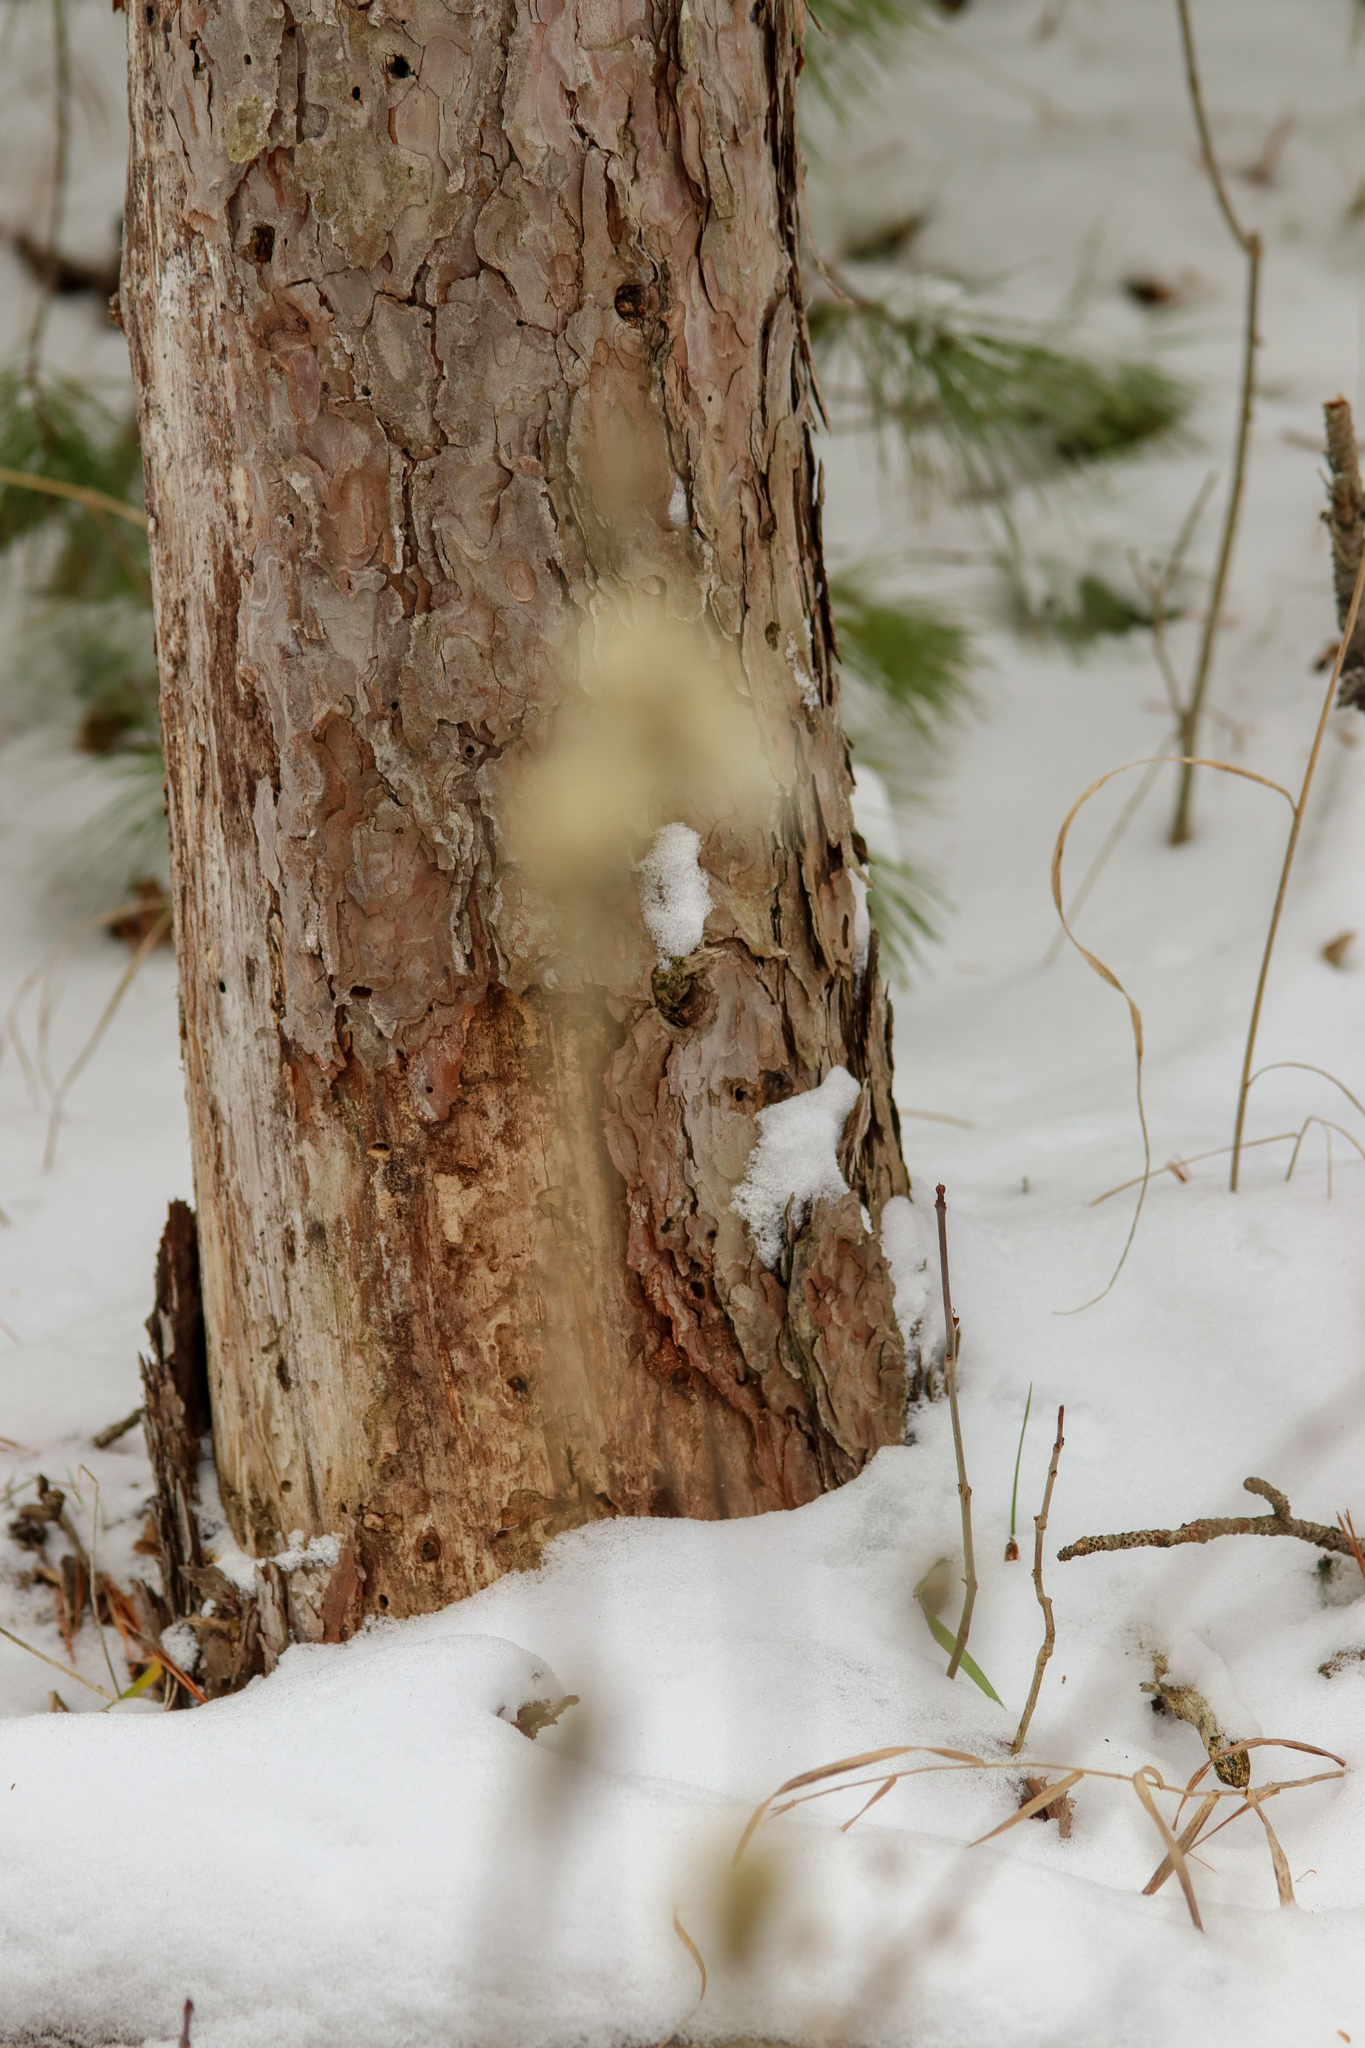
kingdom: Plantae
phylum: Tracheophyta
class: Pinopsida
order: Pinales
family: Pinaceae
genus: Pinus
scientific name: Pinus resinosa
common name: Norway pine
